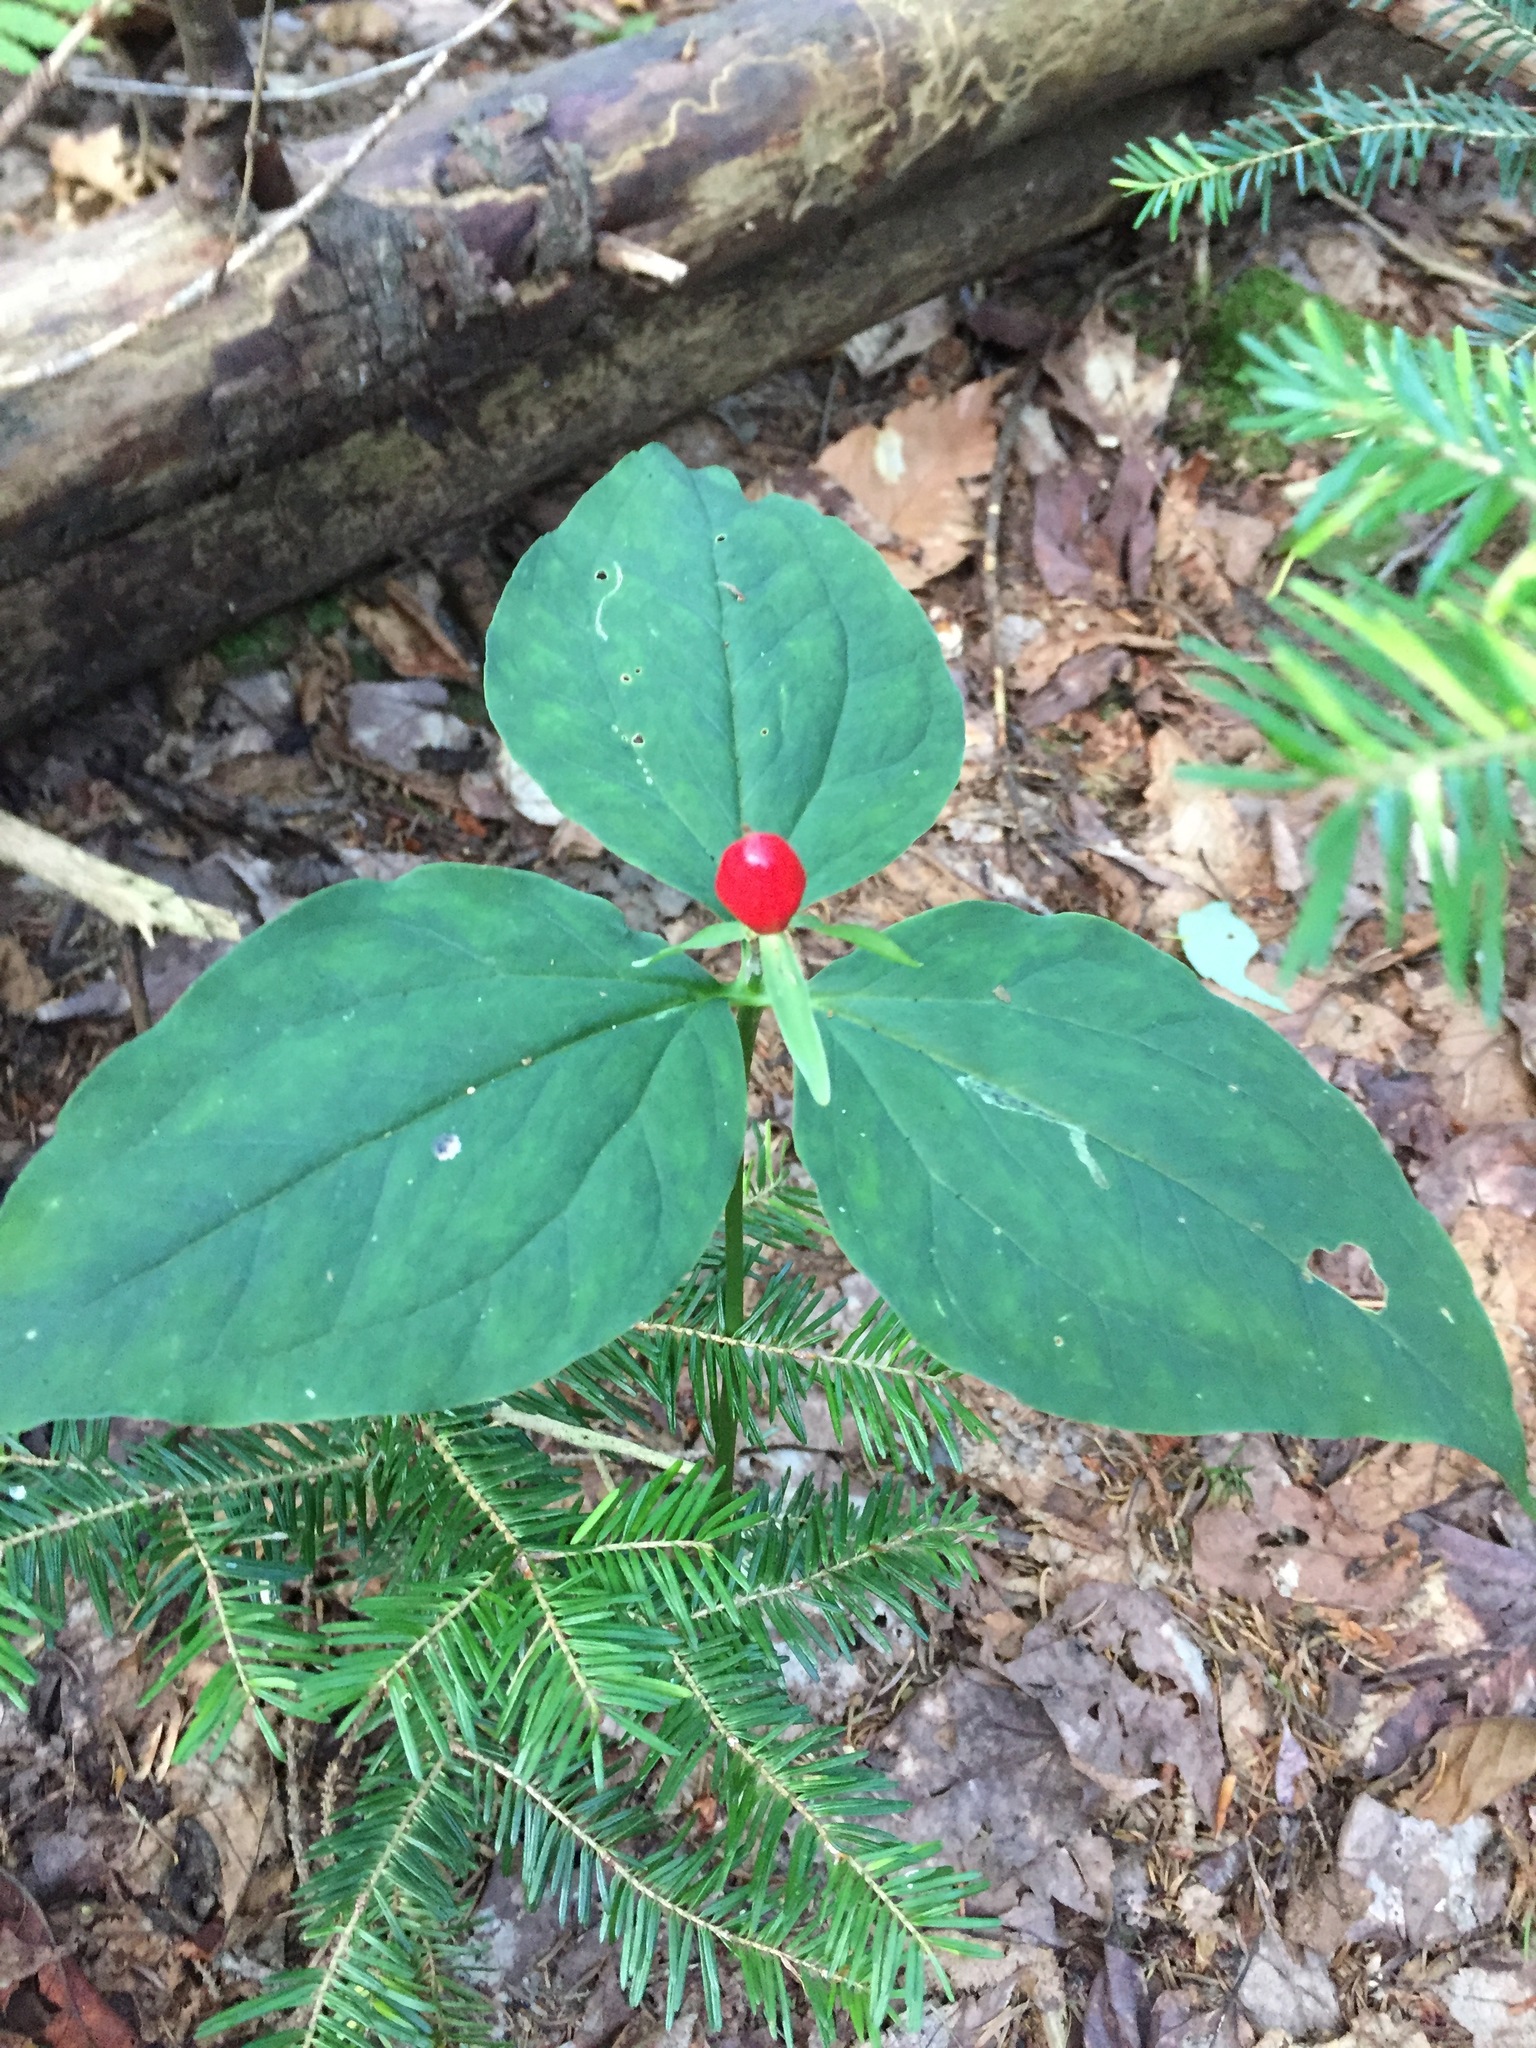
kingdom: Plantae
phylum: Tracheophyta
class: Liliopsida
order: Liliales
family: Melanthiaceae
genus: Trillium
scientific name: Trillium undulatum
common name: Paint trillium
